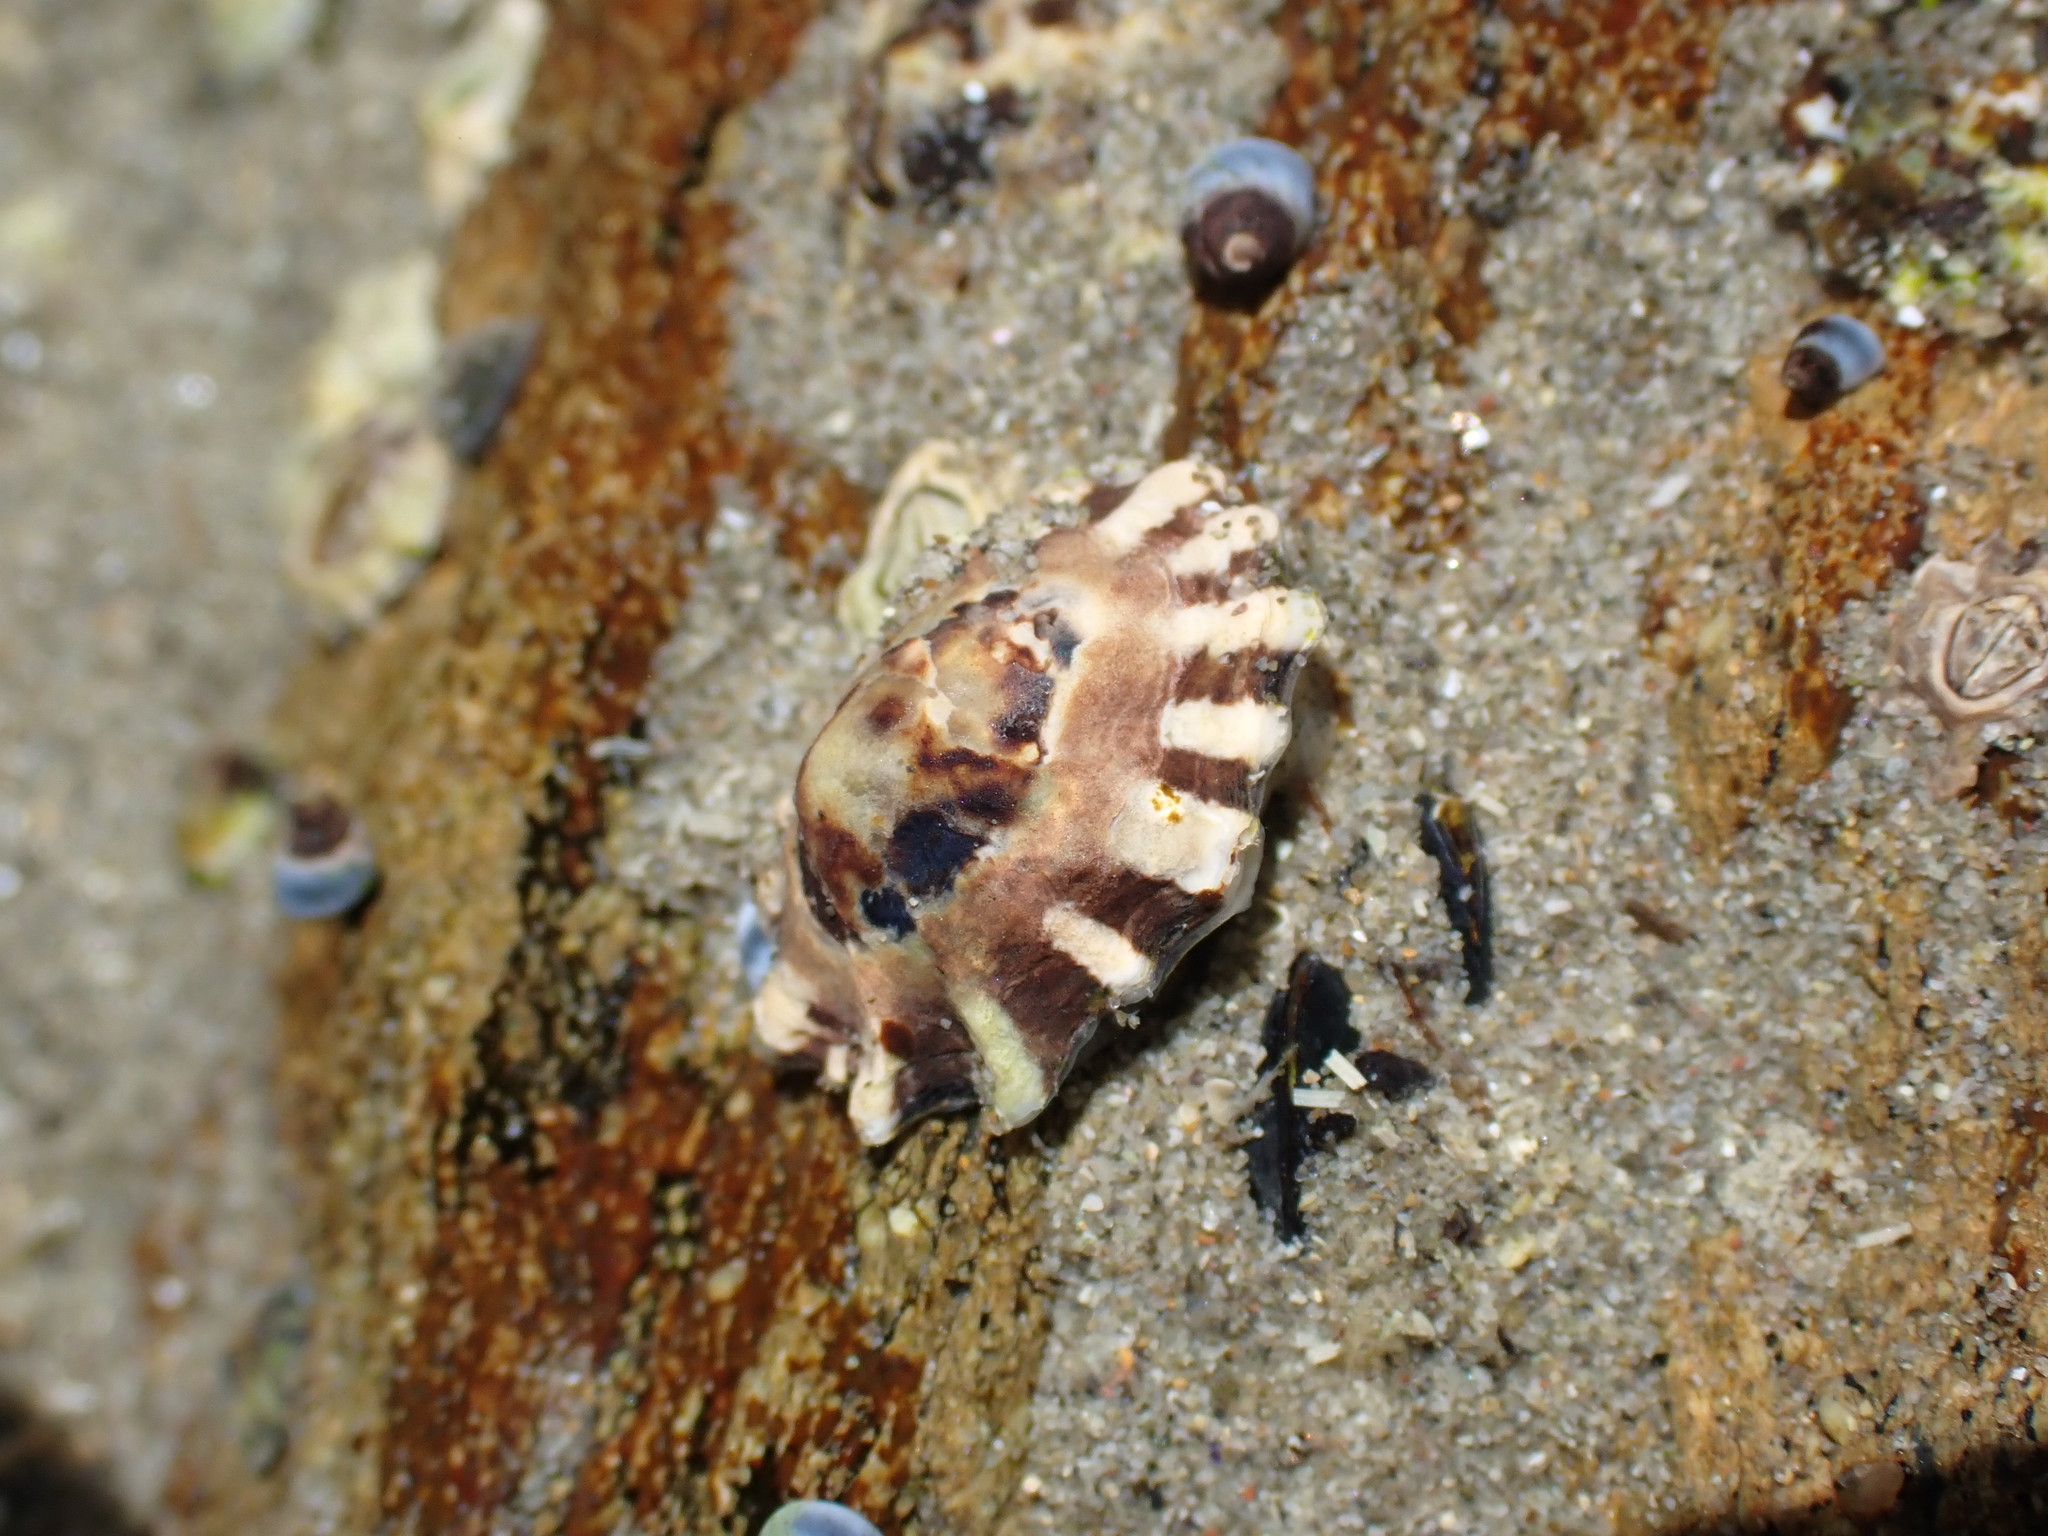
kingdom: Animalia
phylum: Mollusca
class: Gastropoda
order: Siphonariida
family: Siphonariidae
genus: Siphonaria
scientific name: Siphonaria australis
